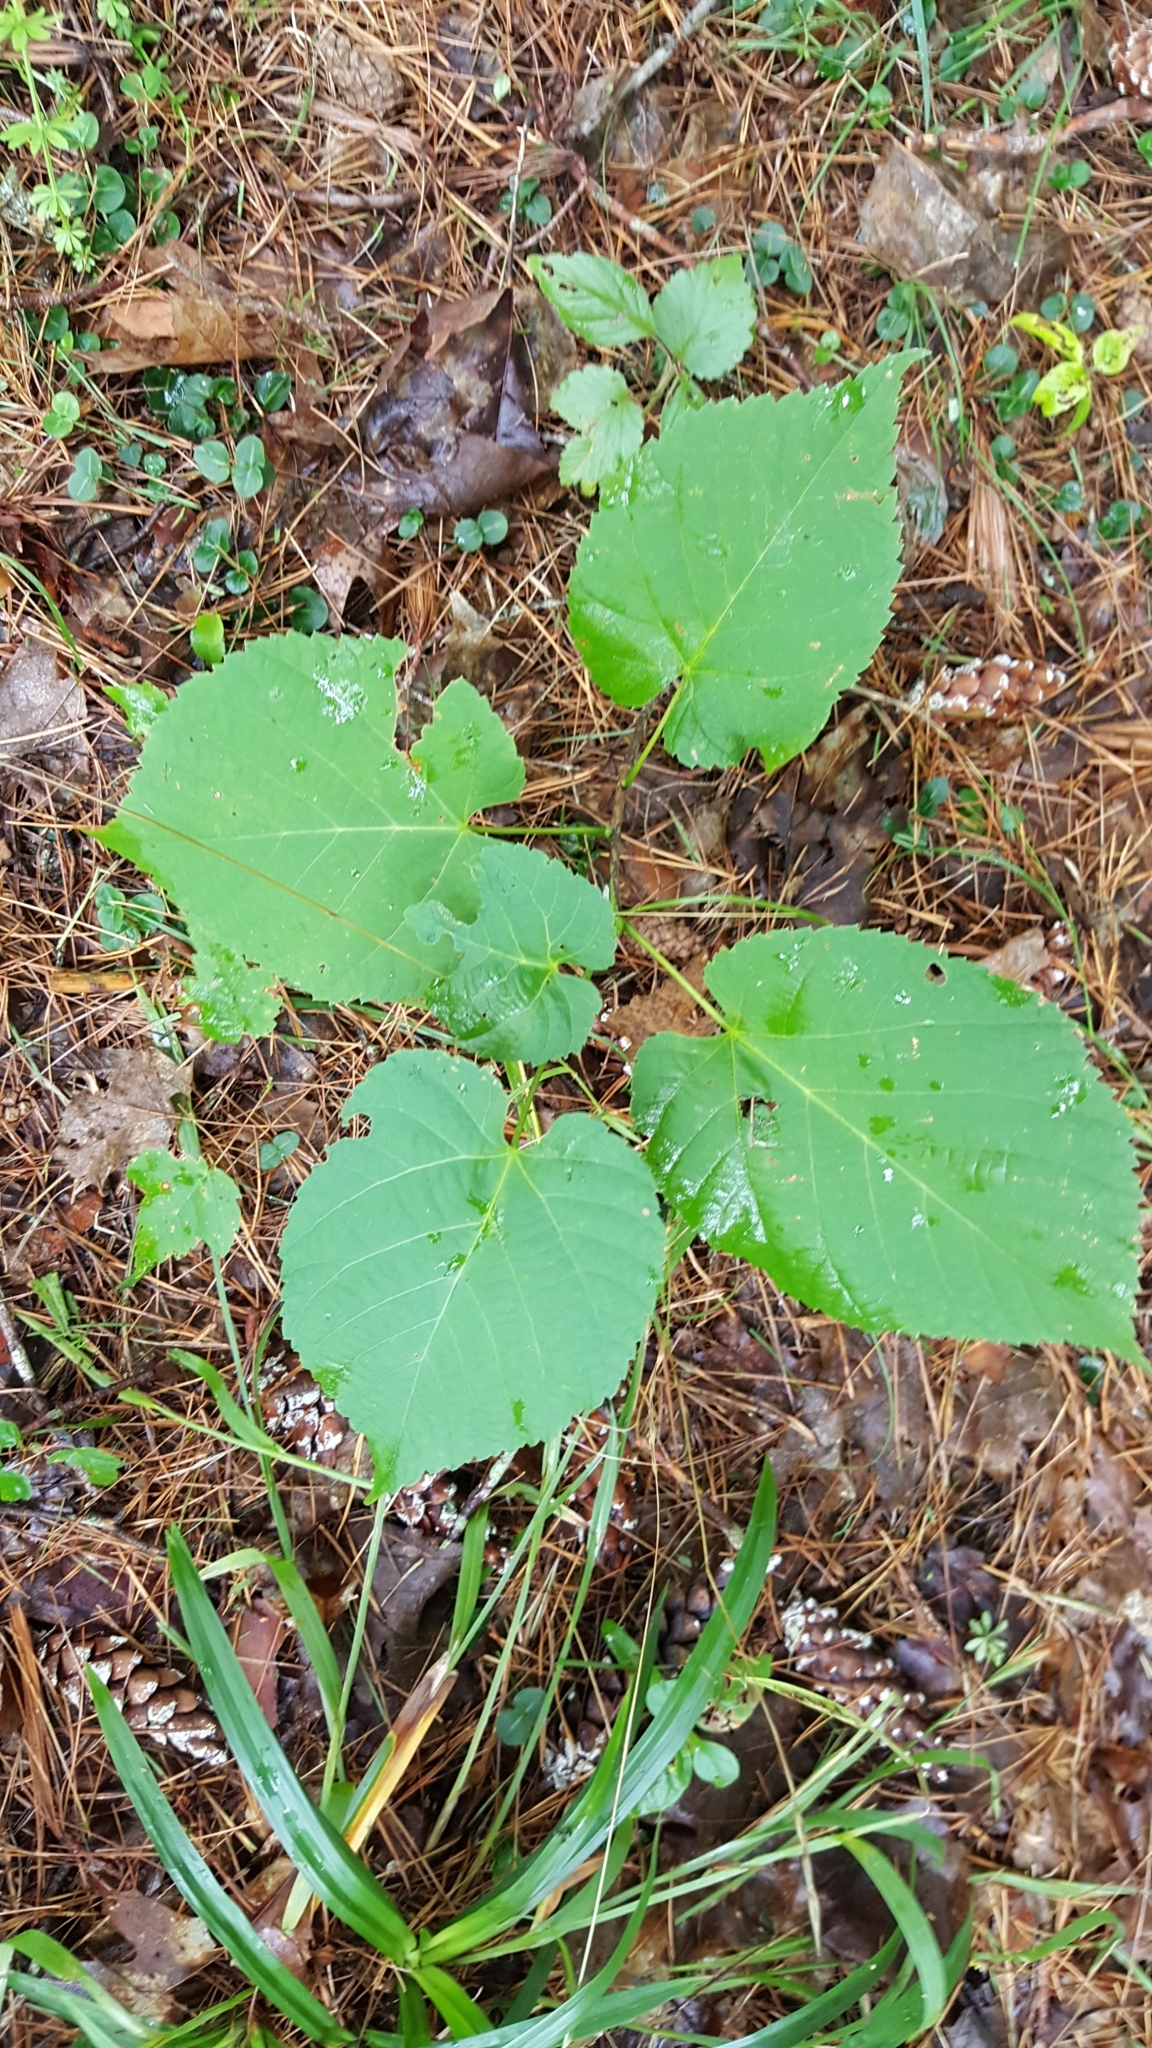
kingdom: Plantae
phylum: Tracheophyta
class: Magnoliopsida
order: Malvales
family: Malvaceae
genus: Tilia
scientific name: Tilia americana
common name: Basswood
